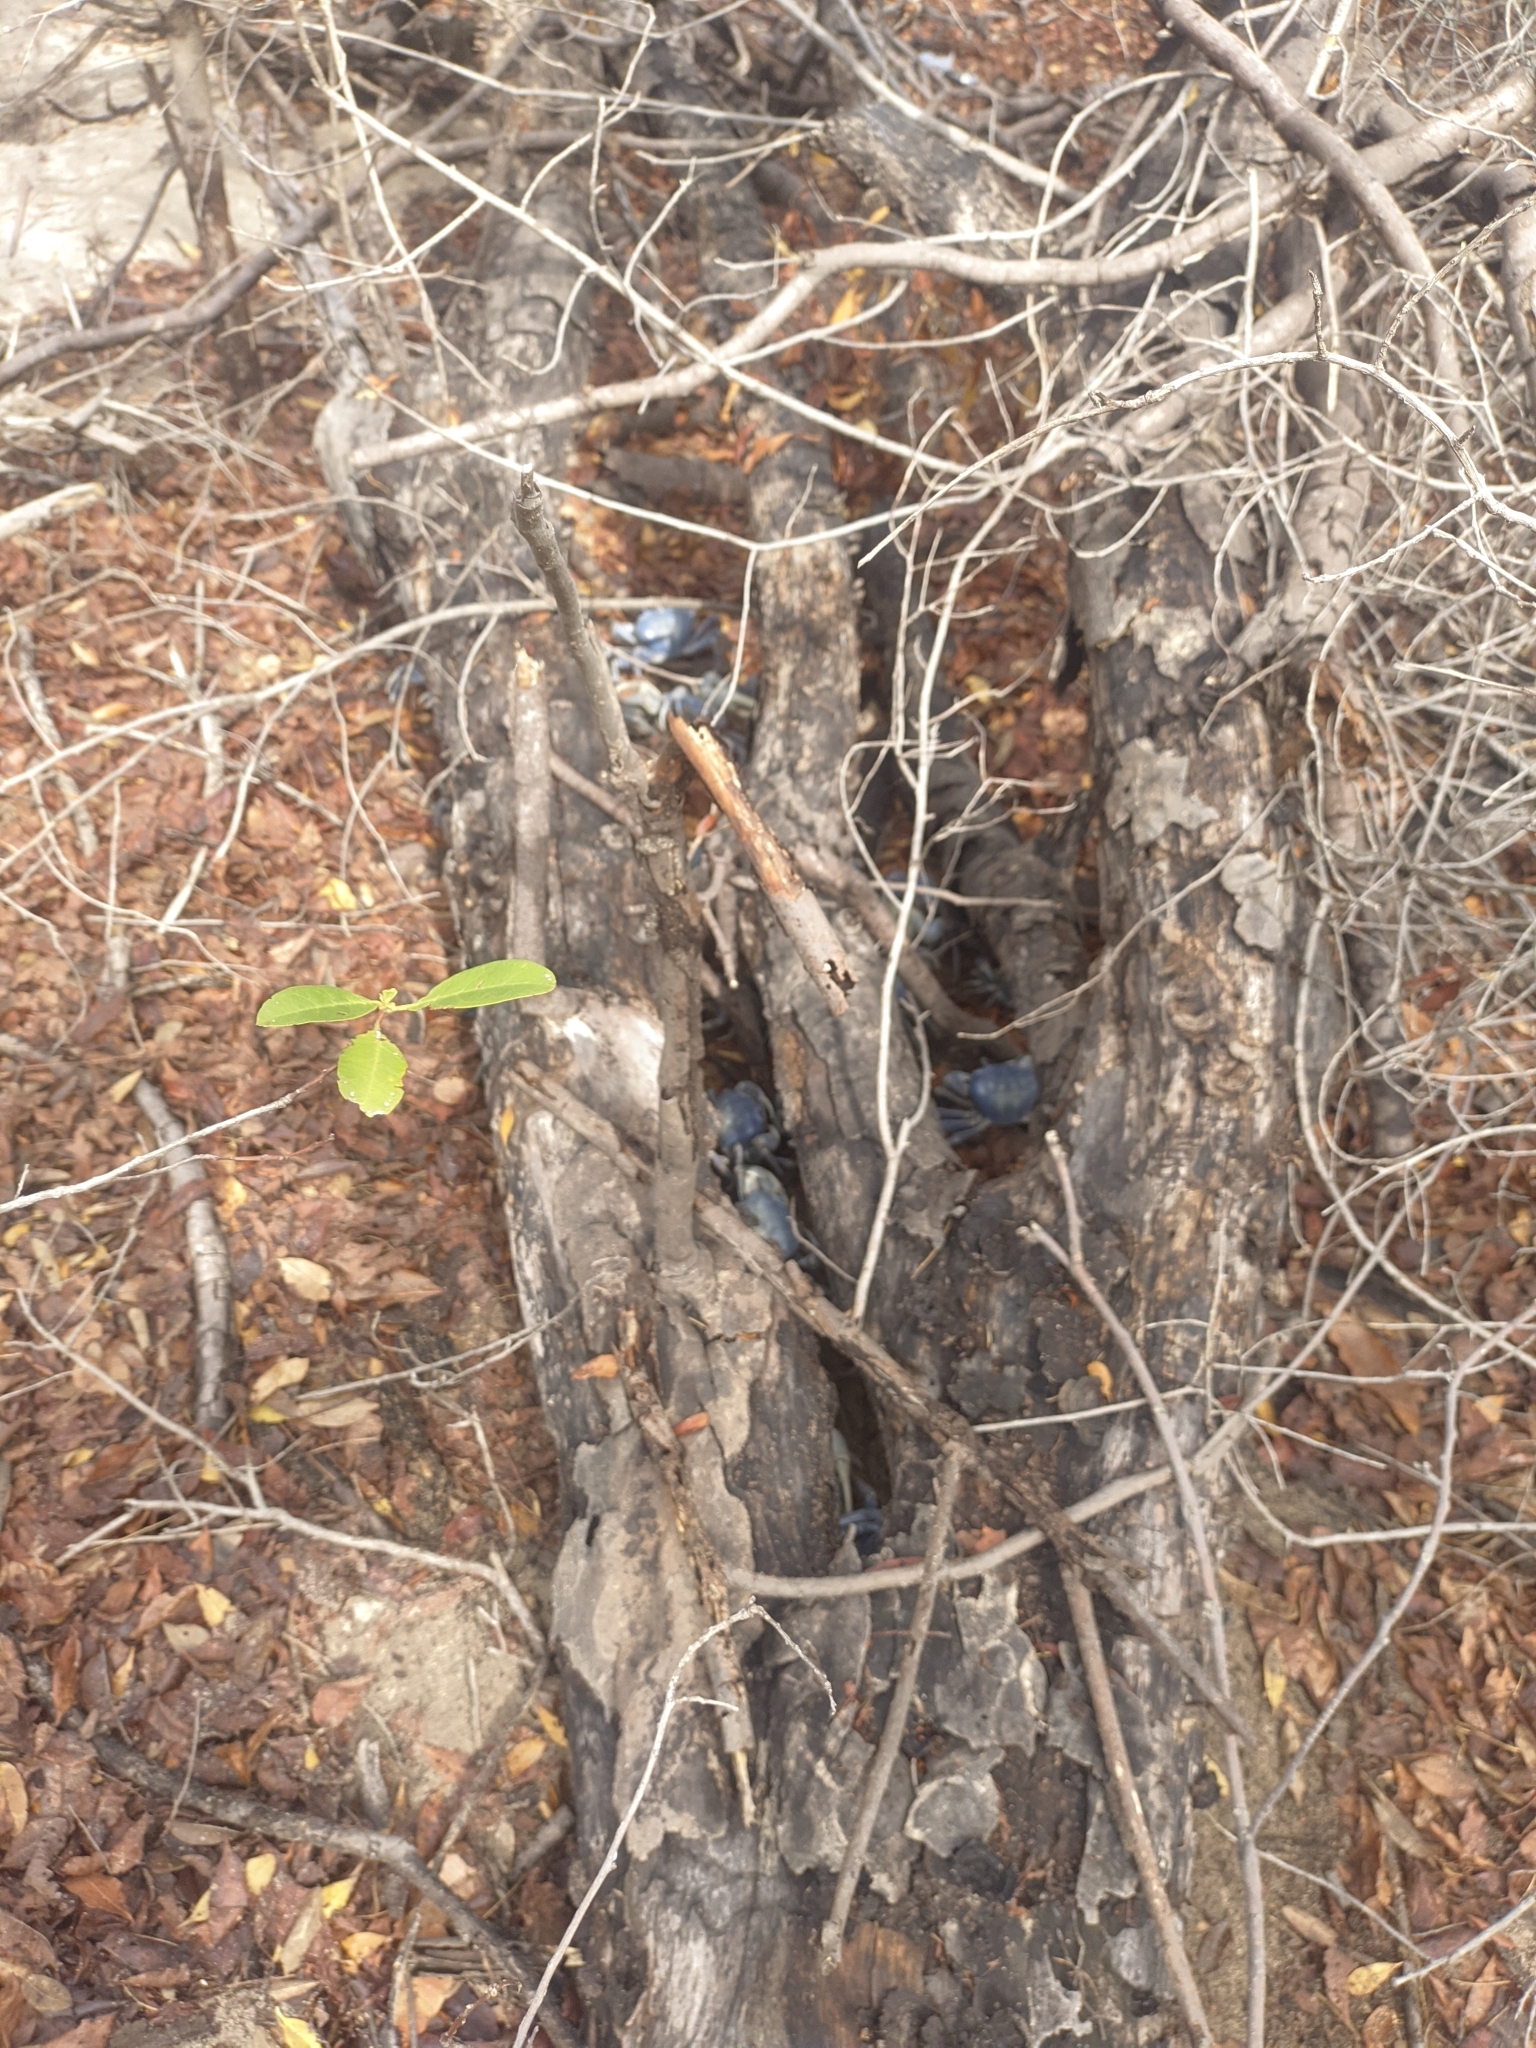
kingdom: Animalia
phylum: Arthropoda
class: Malacostraca
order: Decapoda
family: Gecarcinidae
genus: Cardisoma
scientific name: Cardisoma guanhumi
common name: Great land crab
